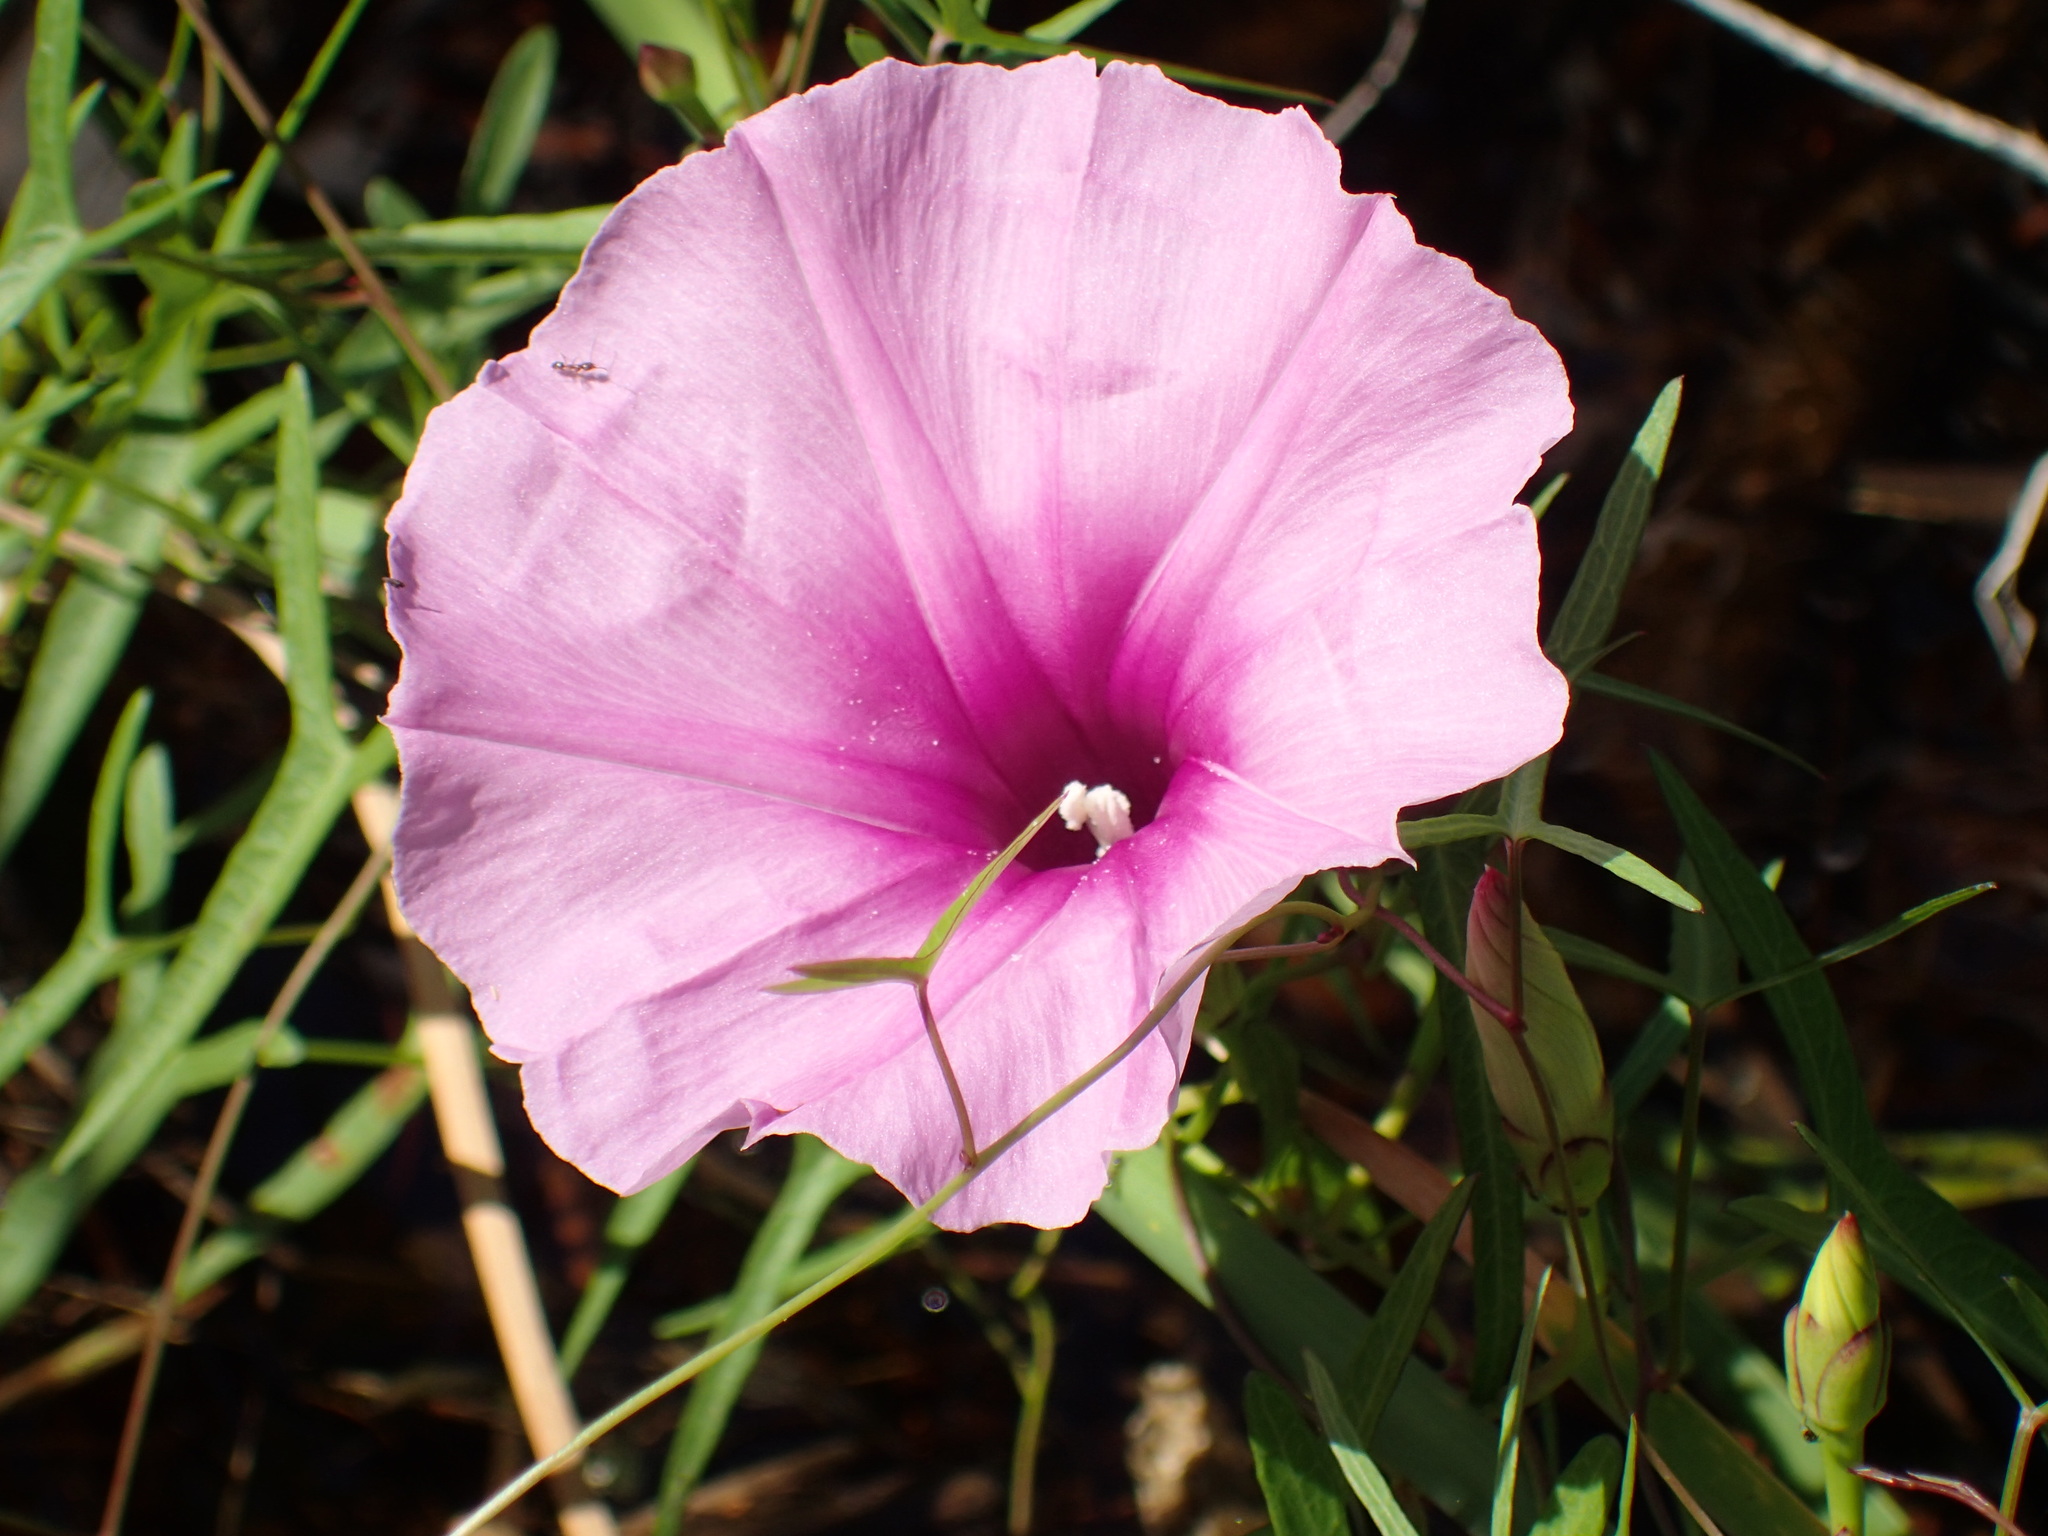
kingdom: Plantae
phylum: Tracheophyta
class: Magnoliopsida
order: Solanales
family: Convolvulaceae
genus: Ipomoea
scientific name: Ipomoea sagittata
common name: Saltmarsh morning glory
